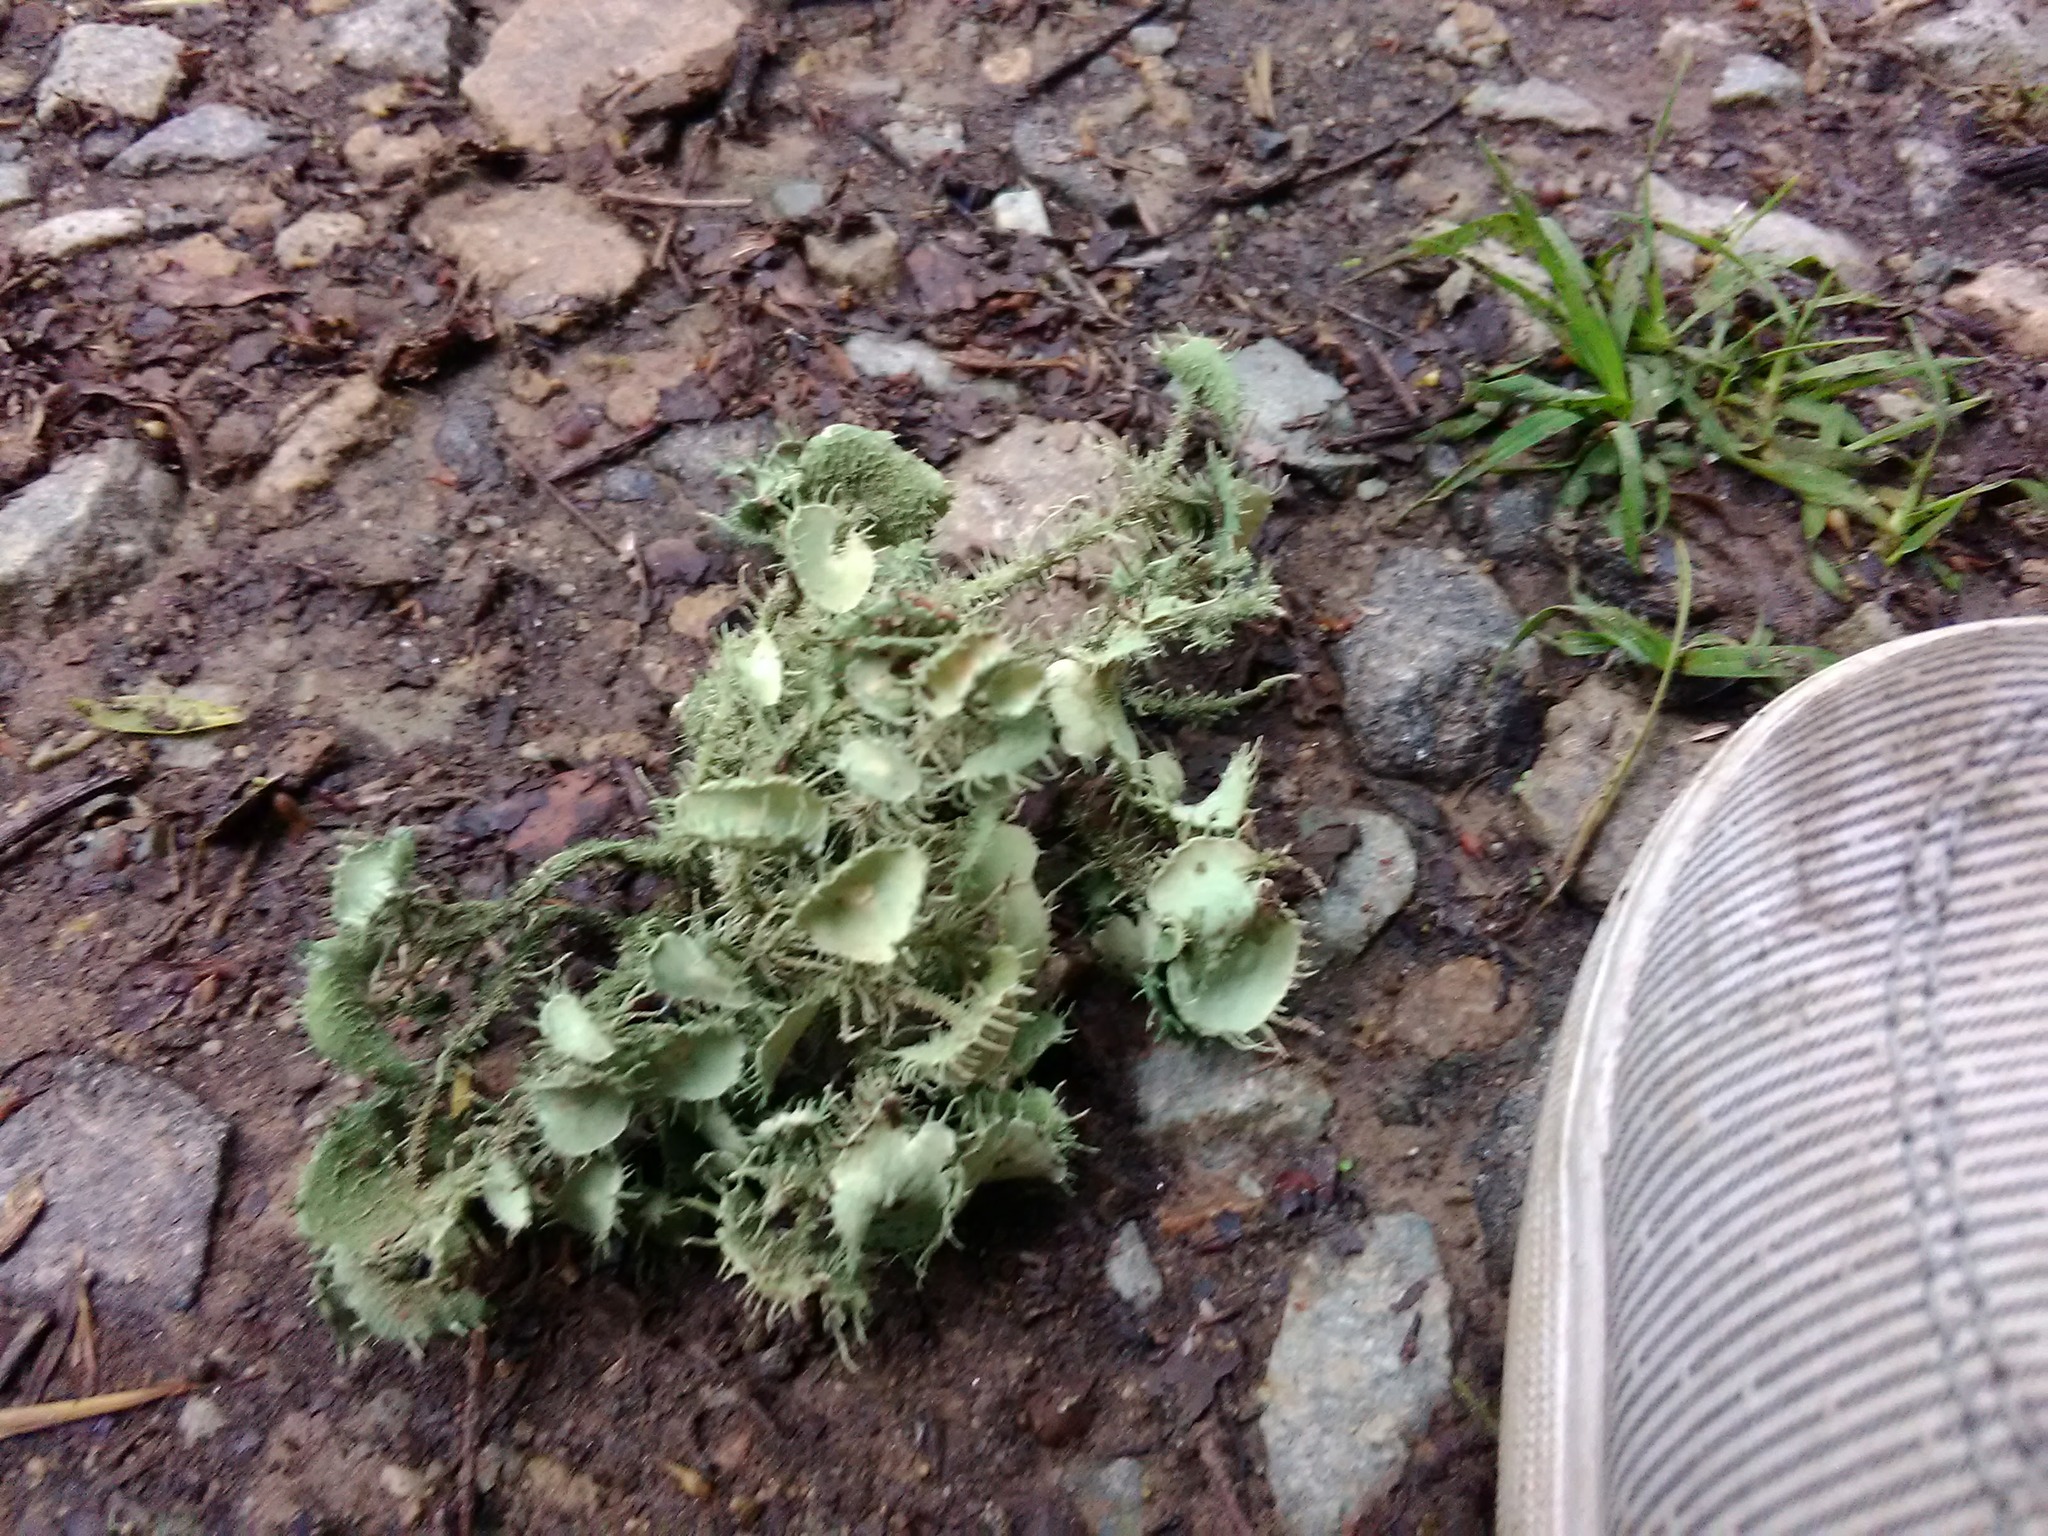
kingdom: Fungi
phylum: Ascomycota
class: Lecanoromycetes
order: Lecanorales
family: Parmeliaceae
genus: Usnea
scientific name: Usnea strigosa
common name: Bushy beard lichen
